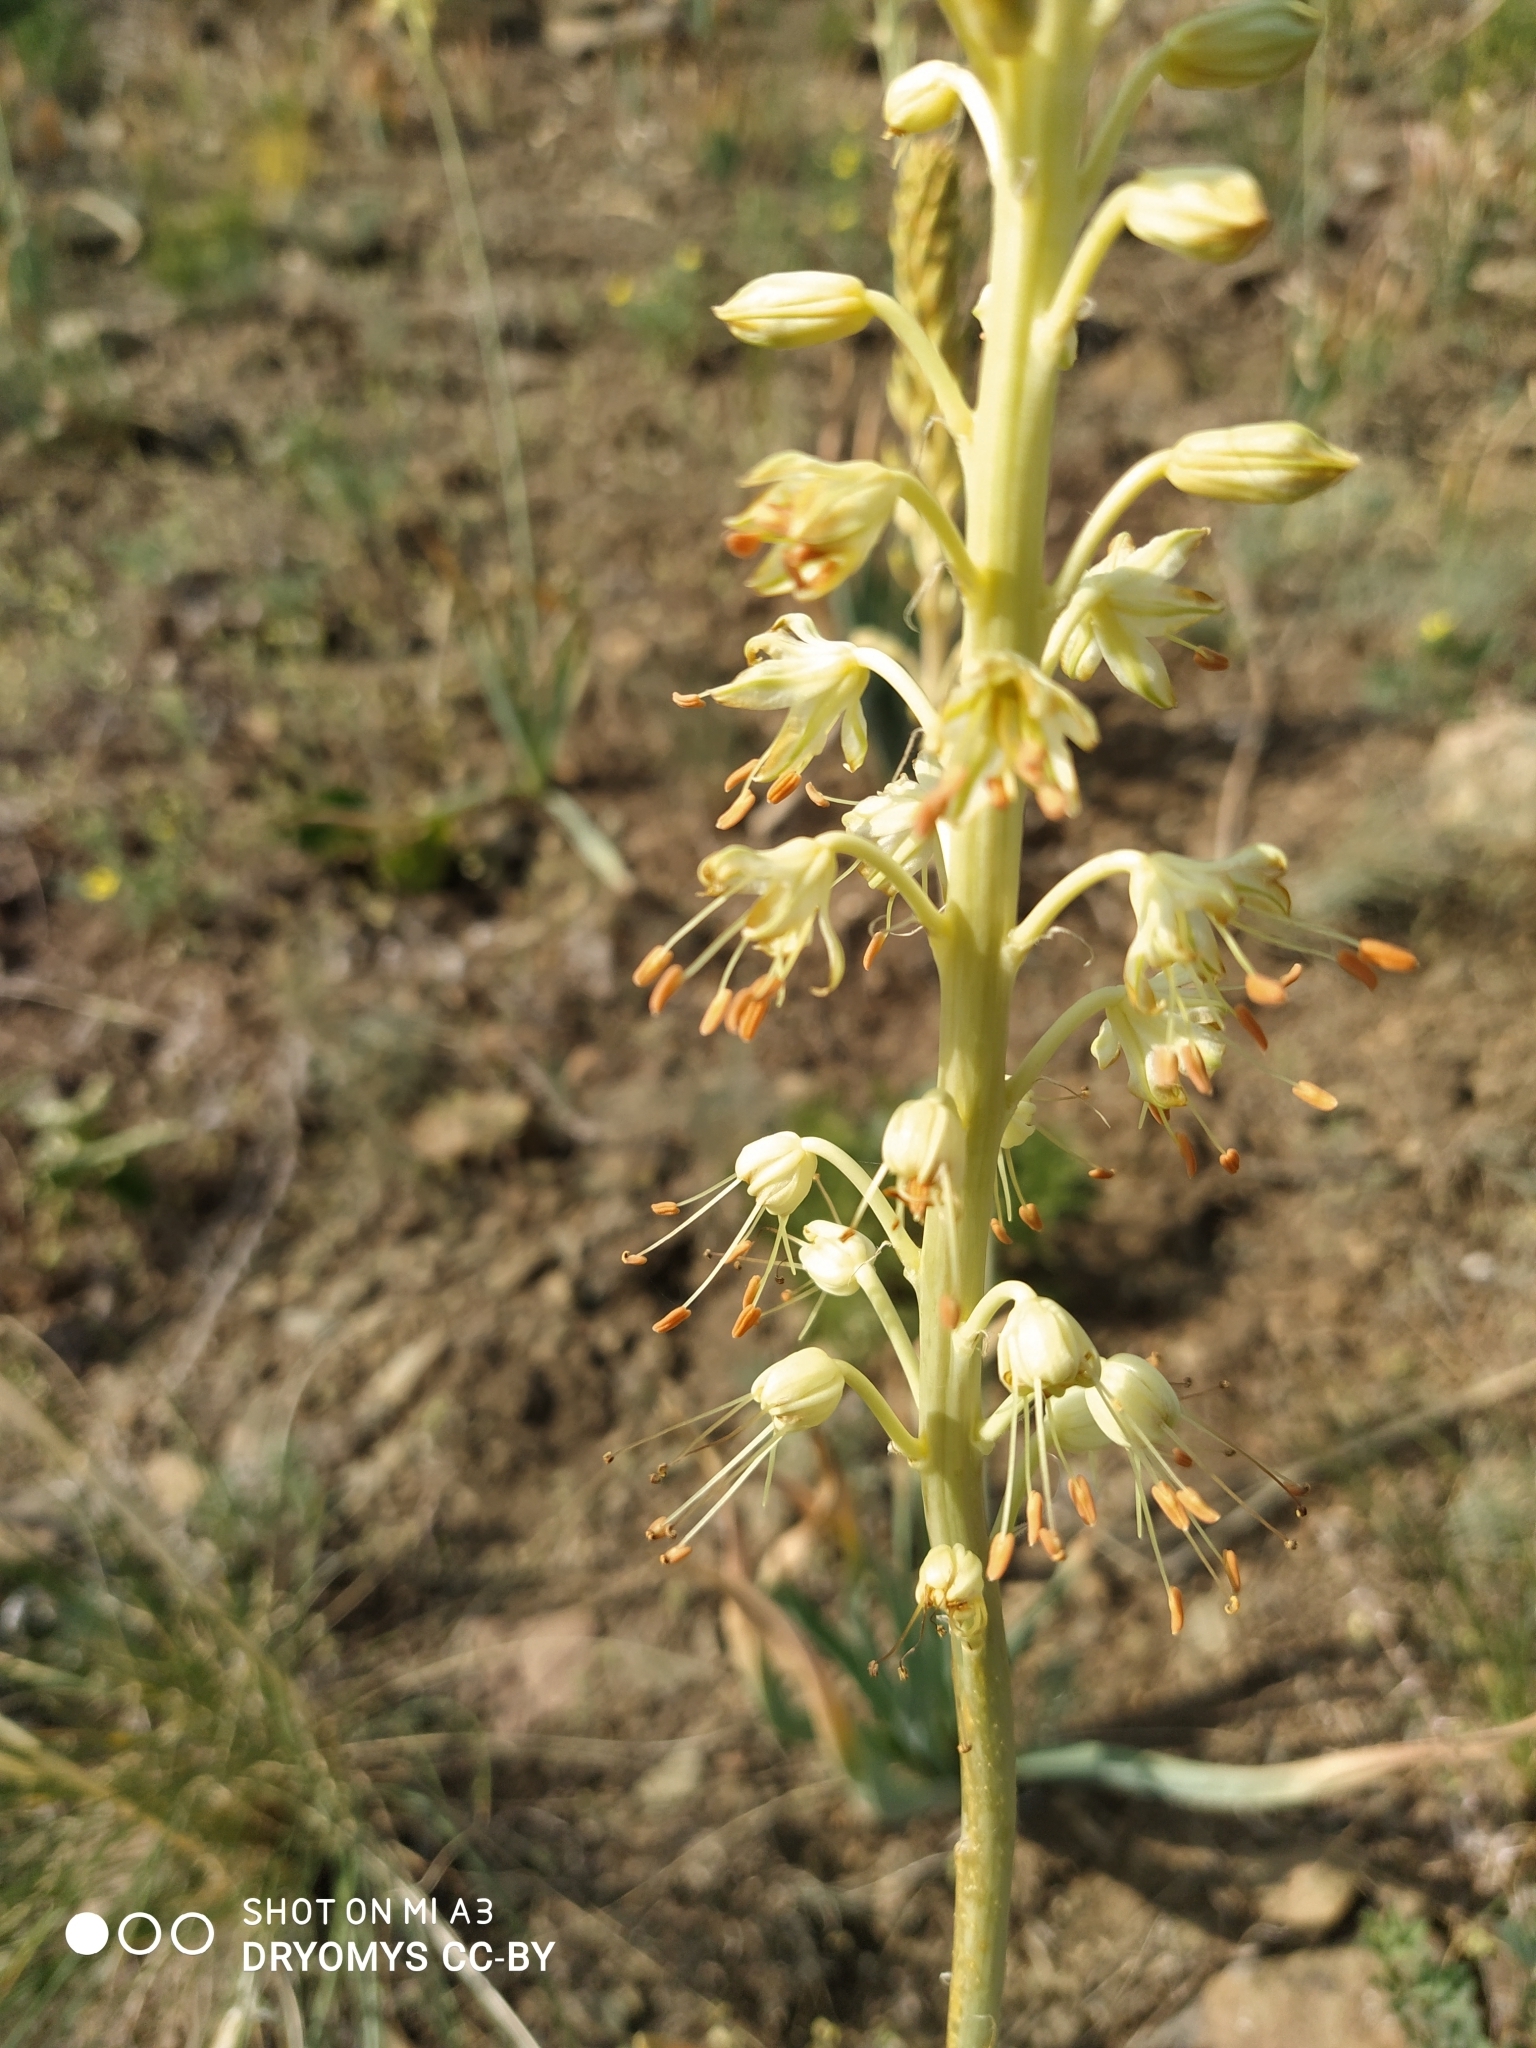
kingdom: Plantae
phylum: Tracheophyta
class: Liliopsida
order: Asparagales
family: Asphodelaceae
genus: Eremurus
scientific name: Eremurus altaicus
